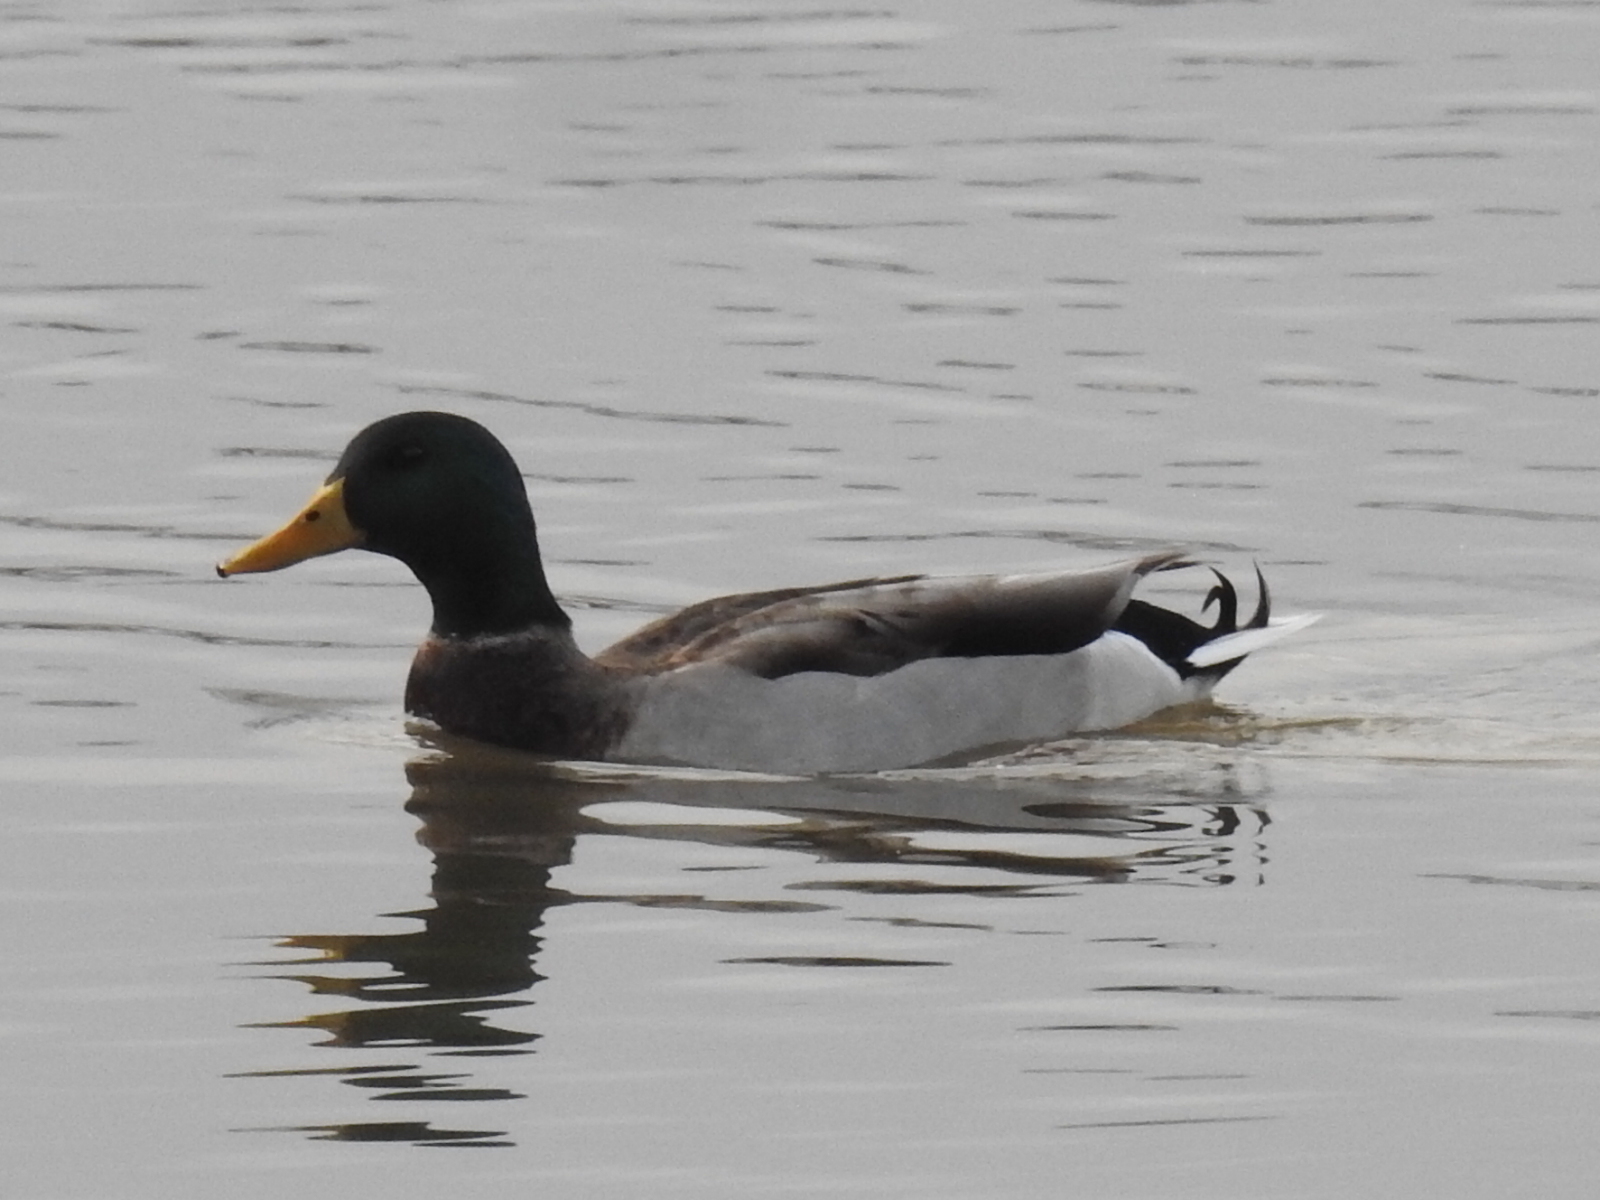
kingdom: Animalia
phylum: Chordata
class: Aves
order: Anseriformes
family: Anatidae
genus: Anas
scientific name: Anas platyrhynchos
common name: Mallard
